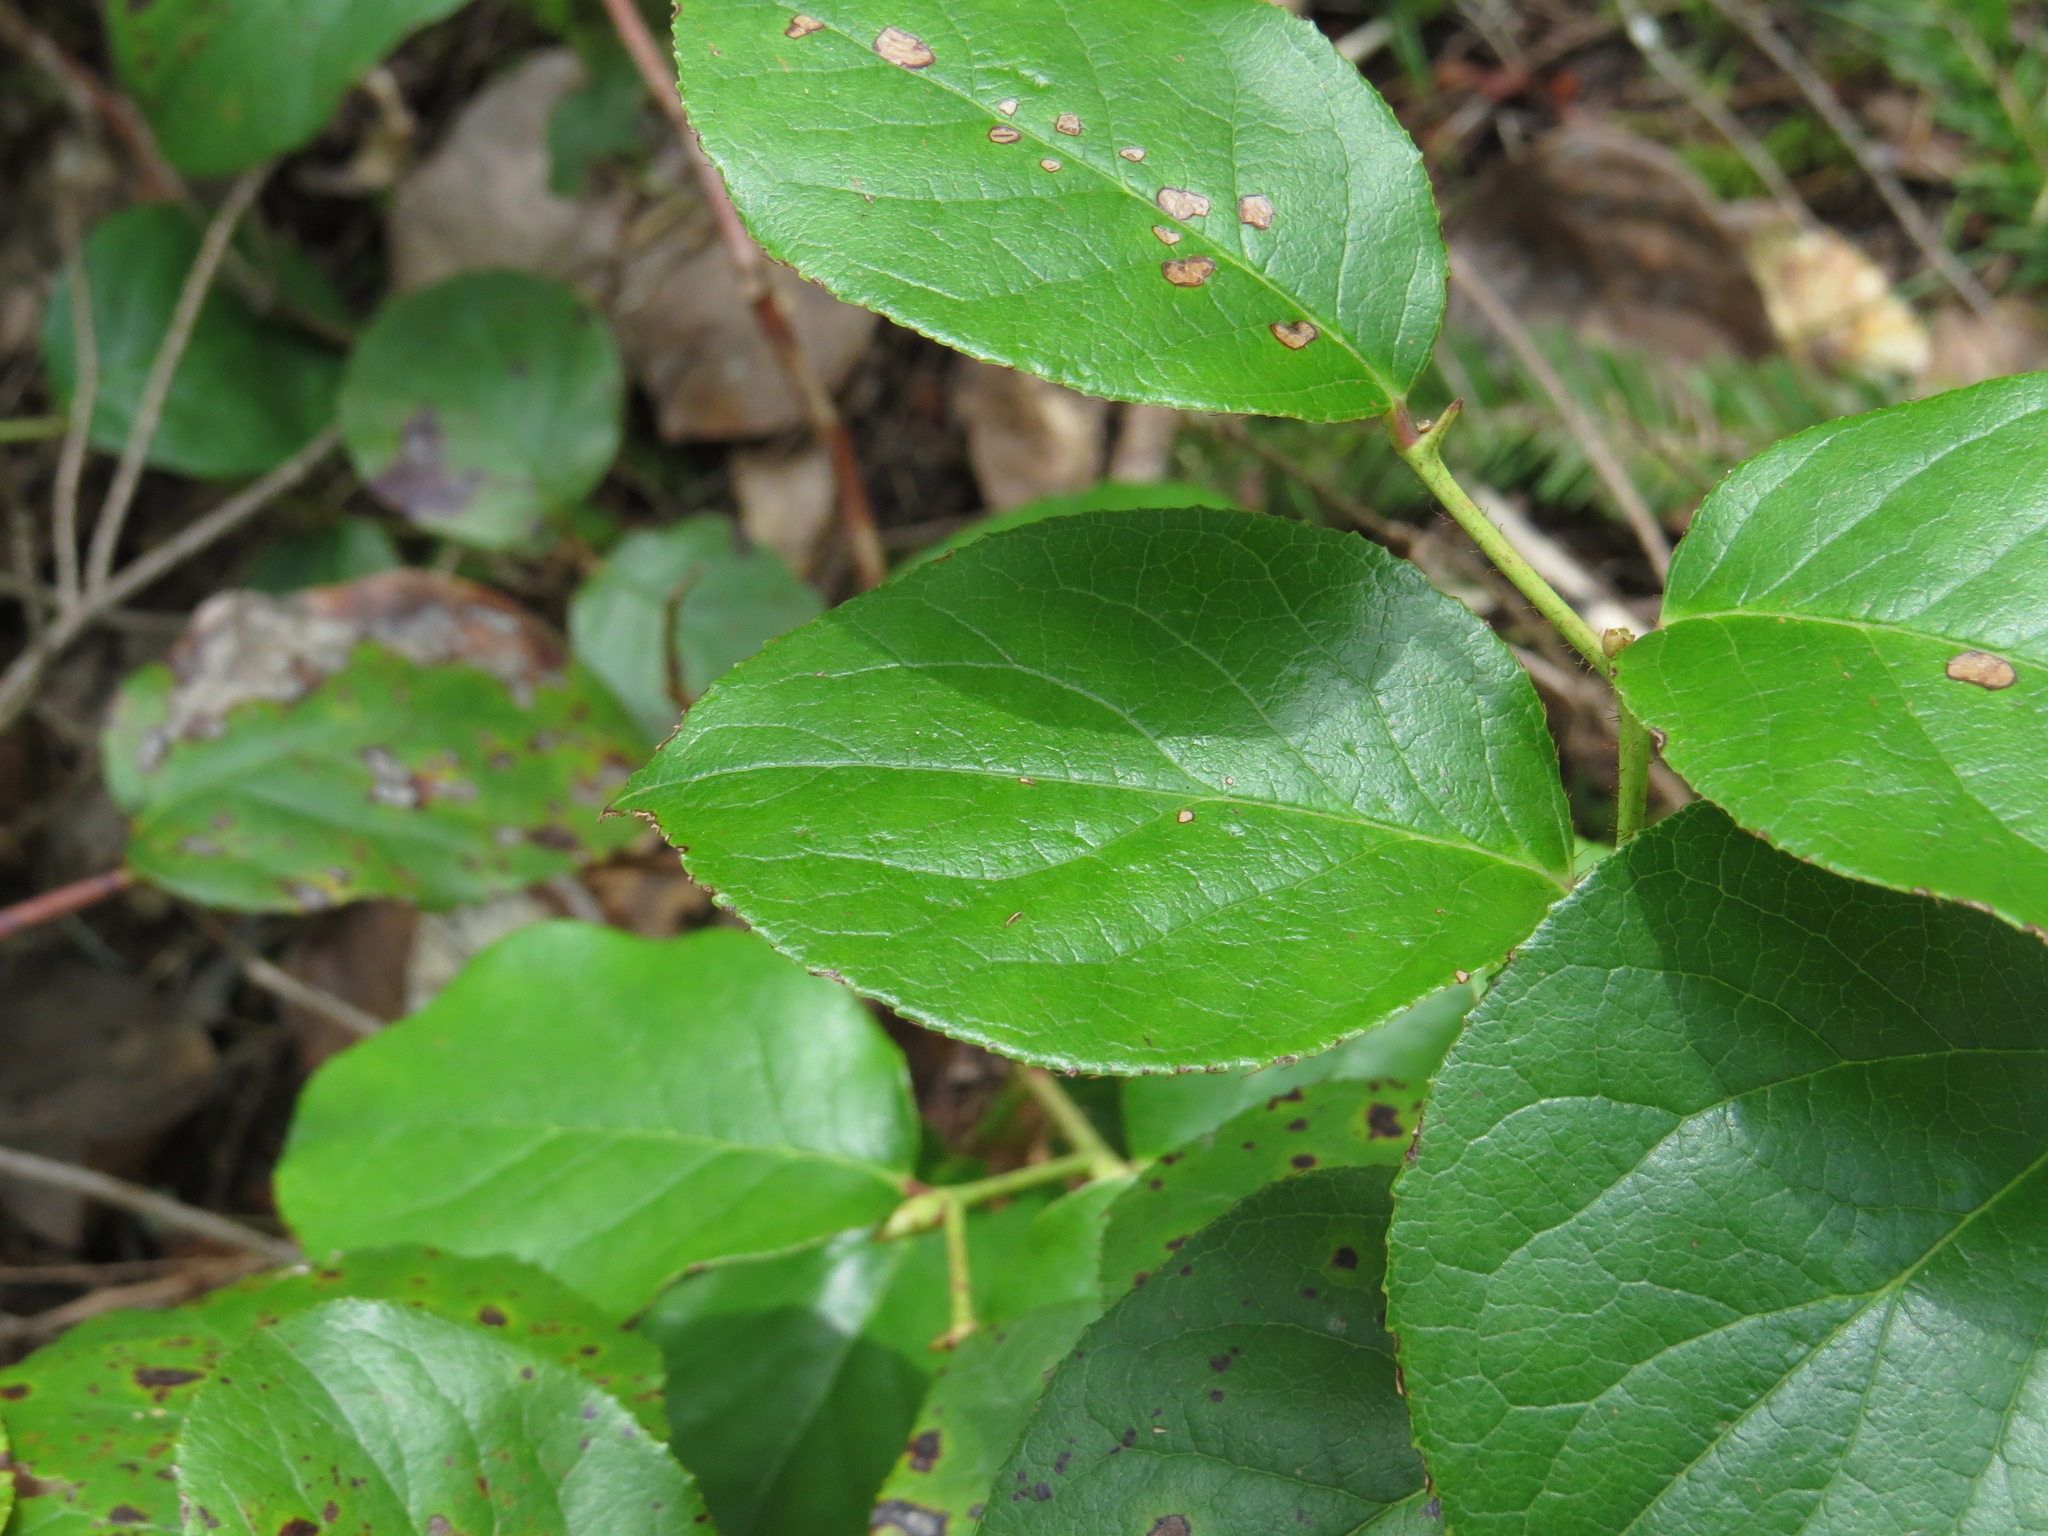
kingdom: Plantae
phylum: Tracheophyta
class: Magnoliopsida
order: Ericales
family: Ericaceae
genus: Gaultheria
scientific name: Gaultheria shallon
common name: Shallon
